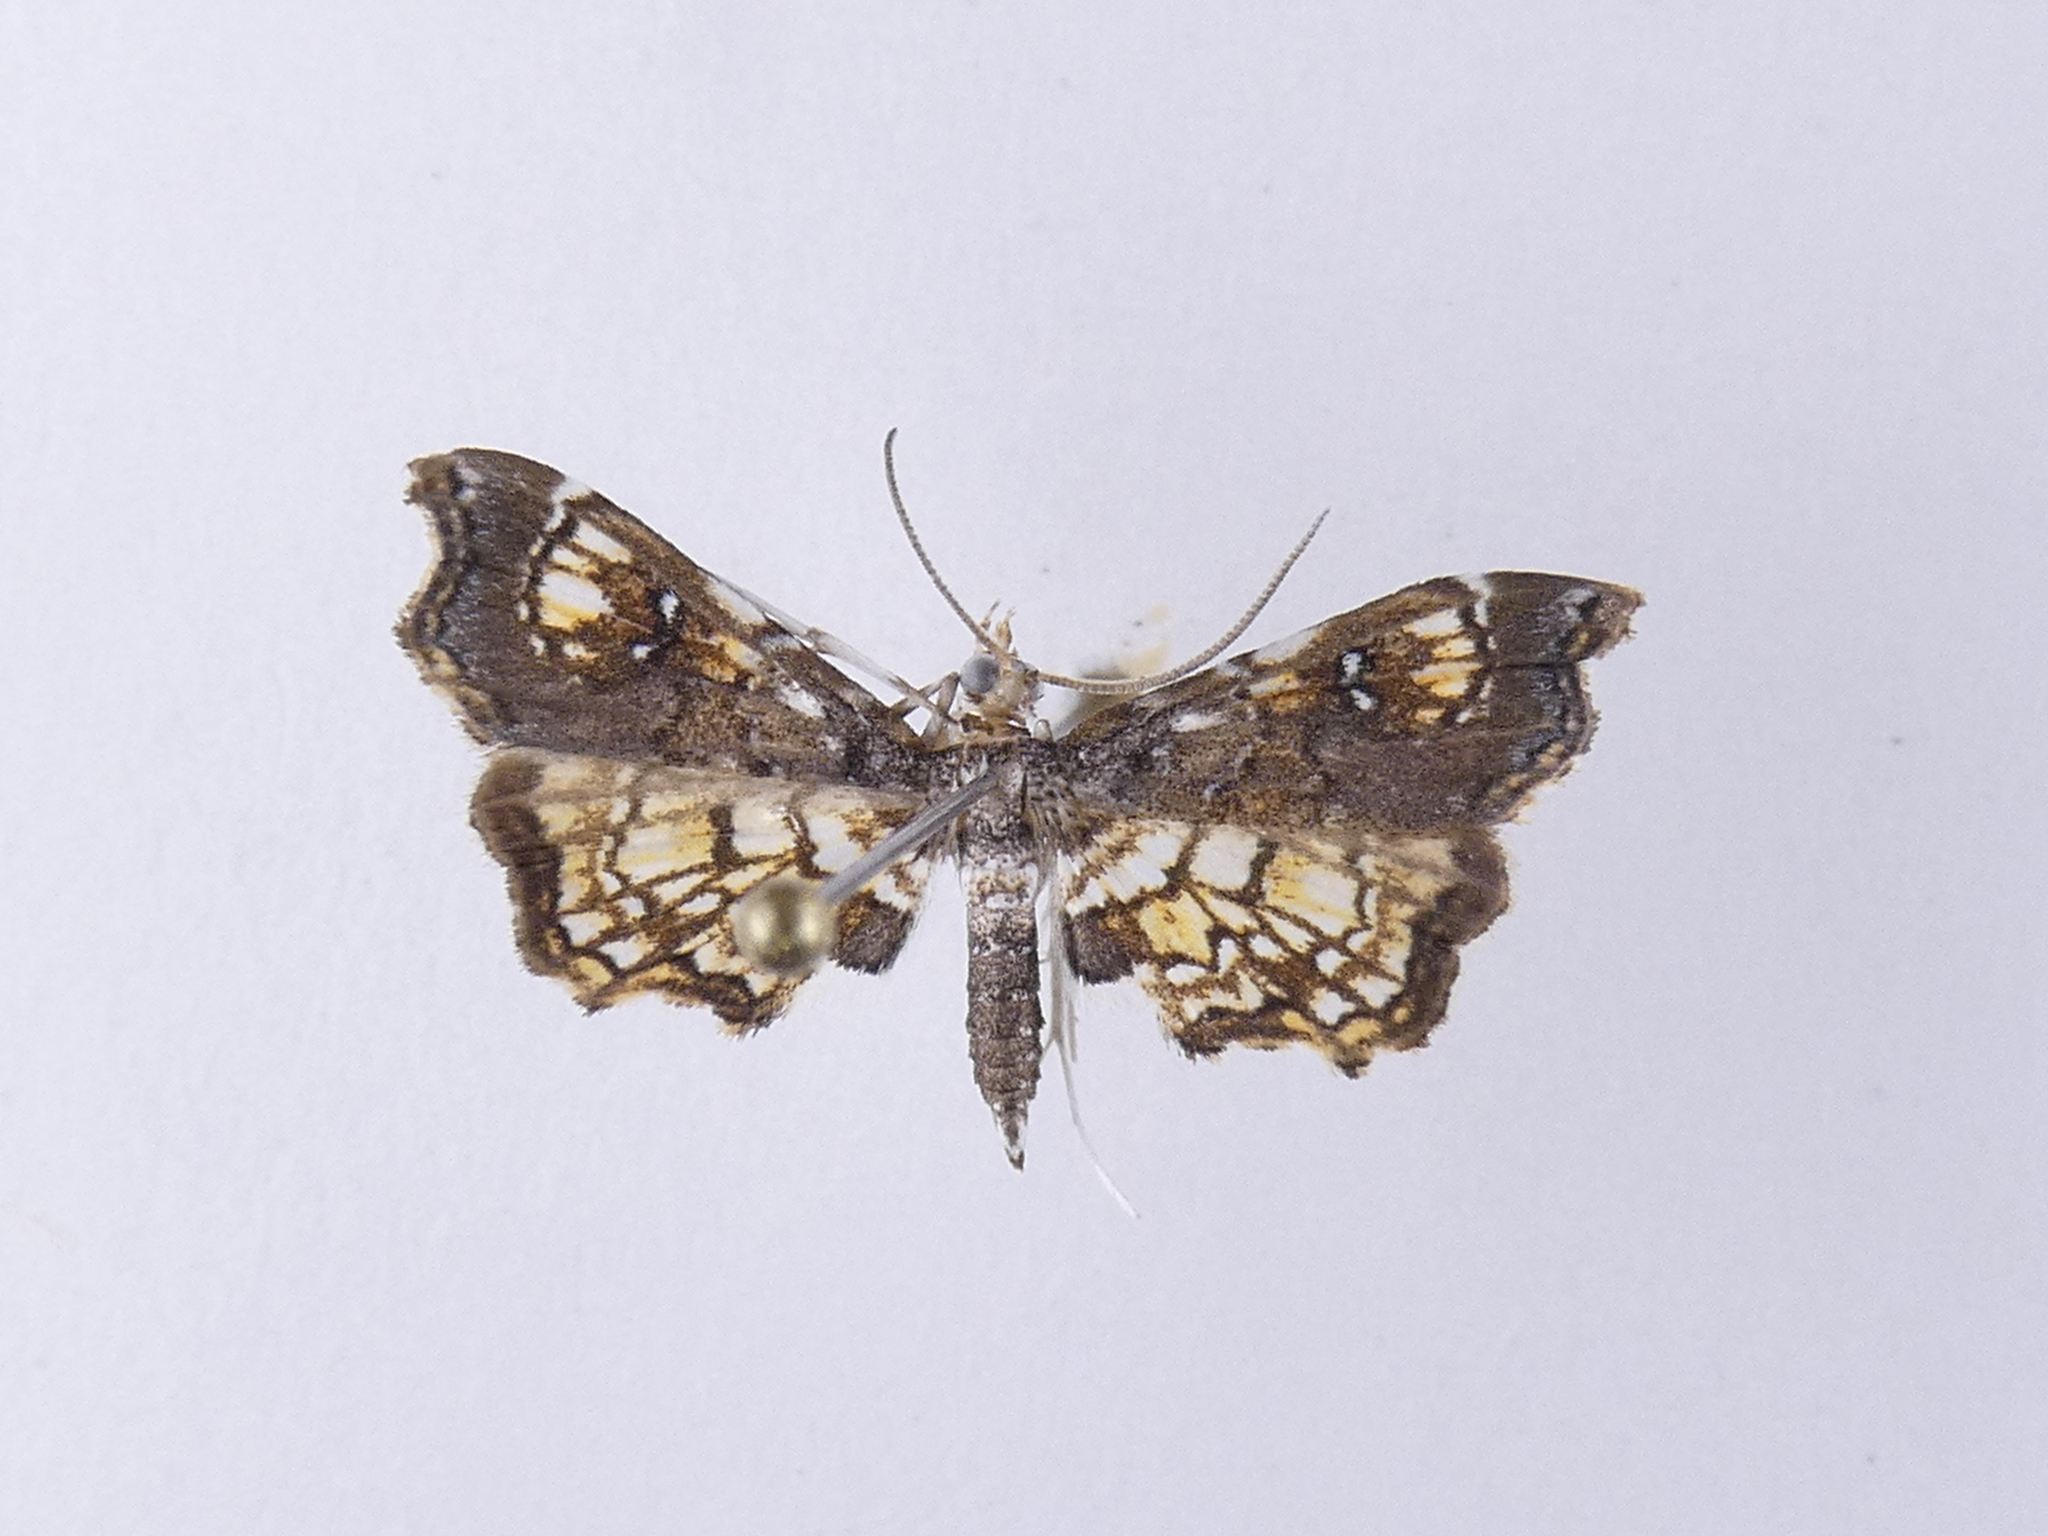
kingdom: Animalia
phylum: Arthropoda
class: Insecta
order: Lepidoptera
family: Pyralidae
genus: Musotima
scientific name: Musotima aduncalis
